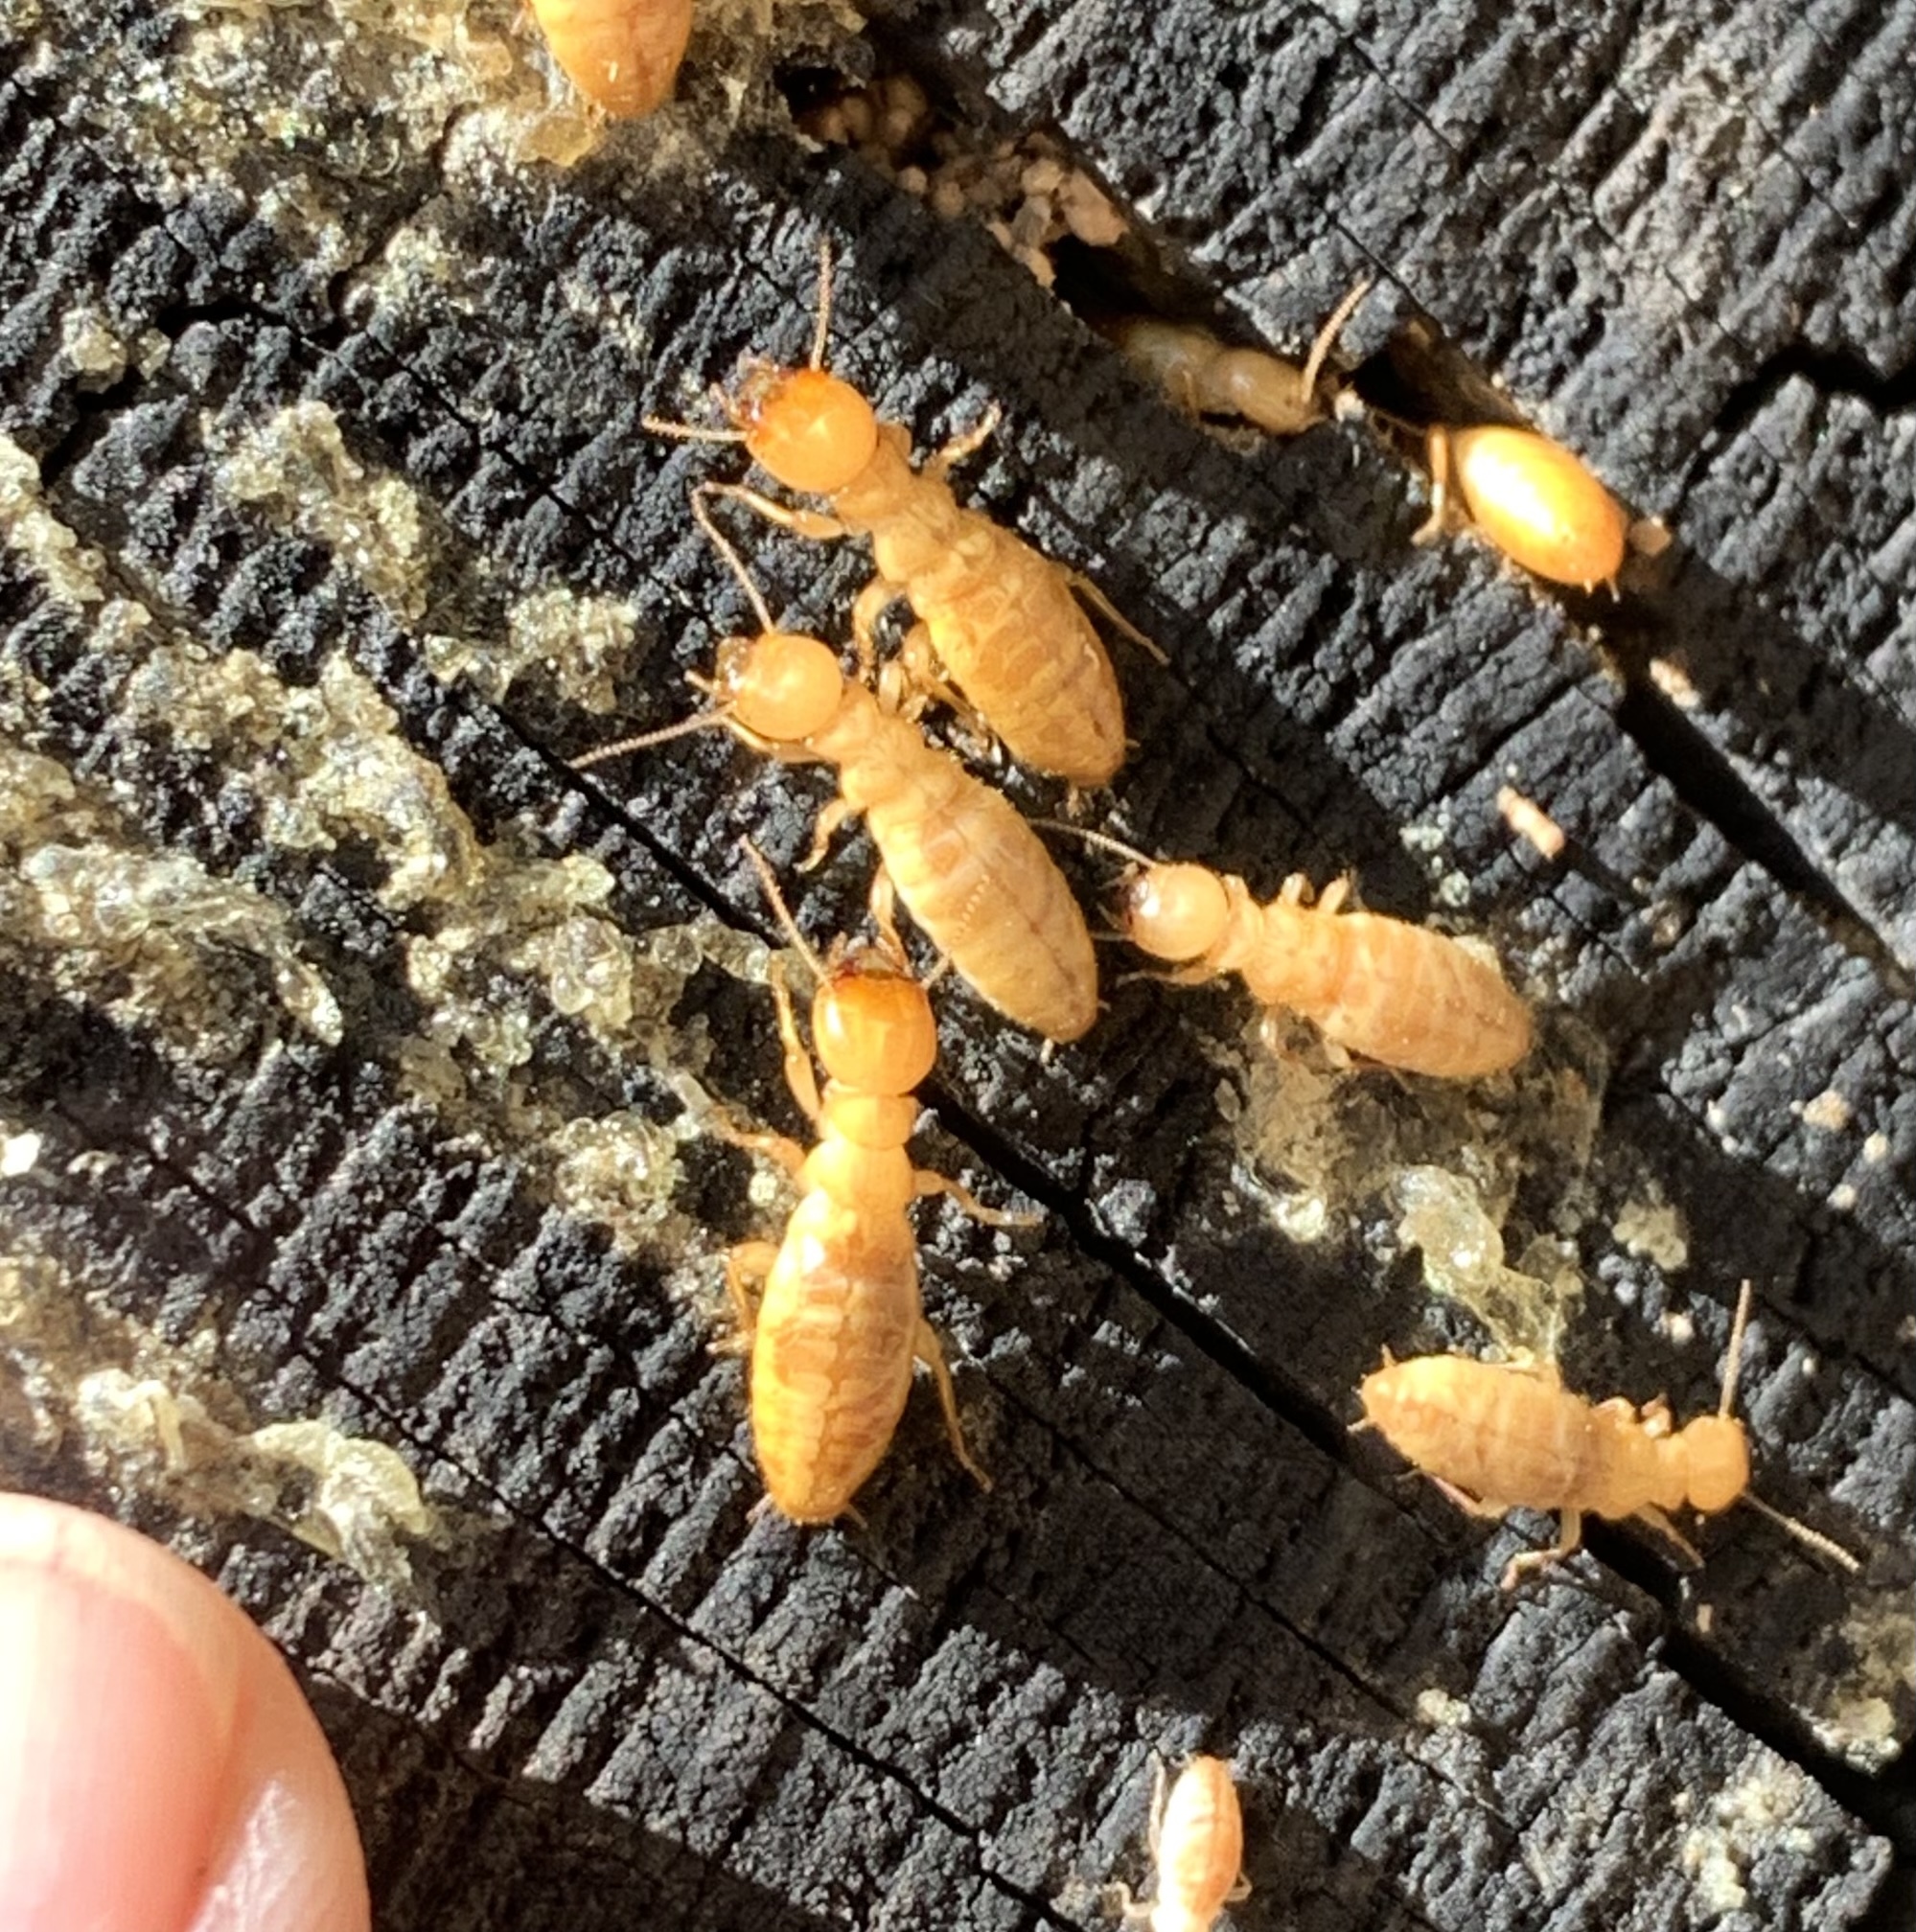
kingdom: Animalia
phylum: Arthropoda
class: Insecta
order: Blattodea
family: Archotermopsidae
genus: Zootermopsis
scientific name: Zootermopsis nevadensis
